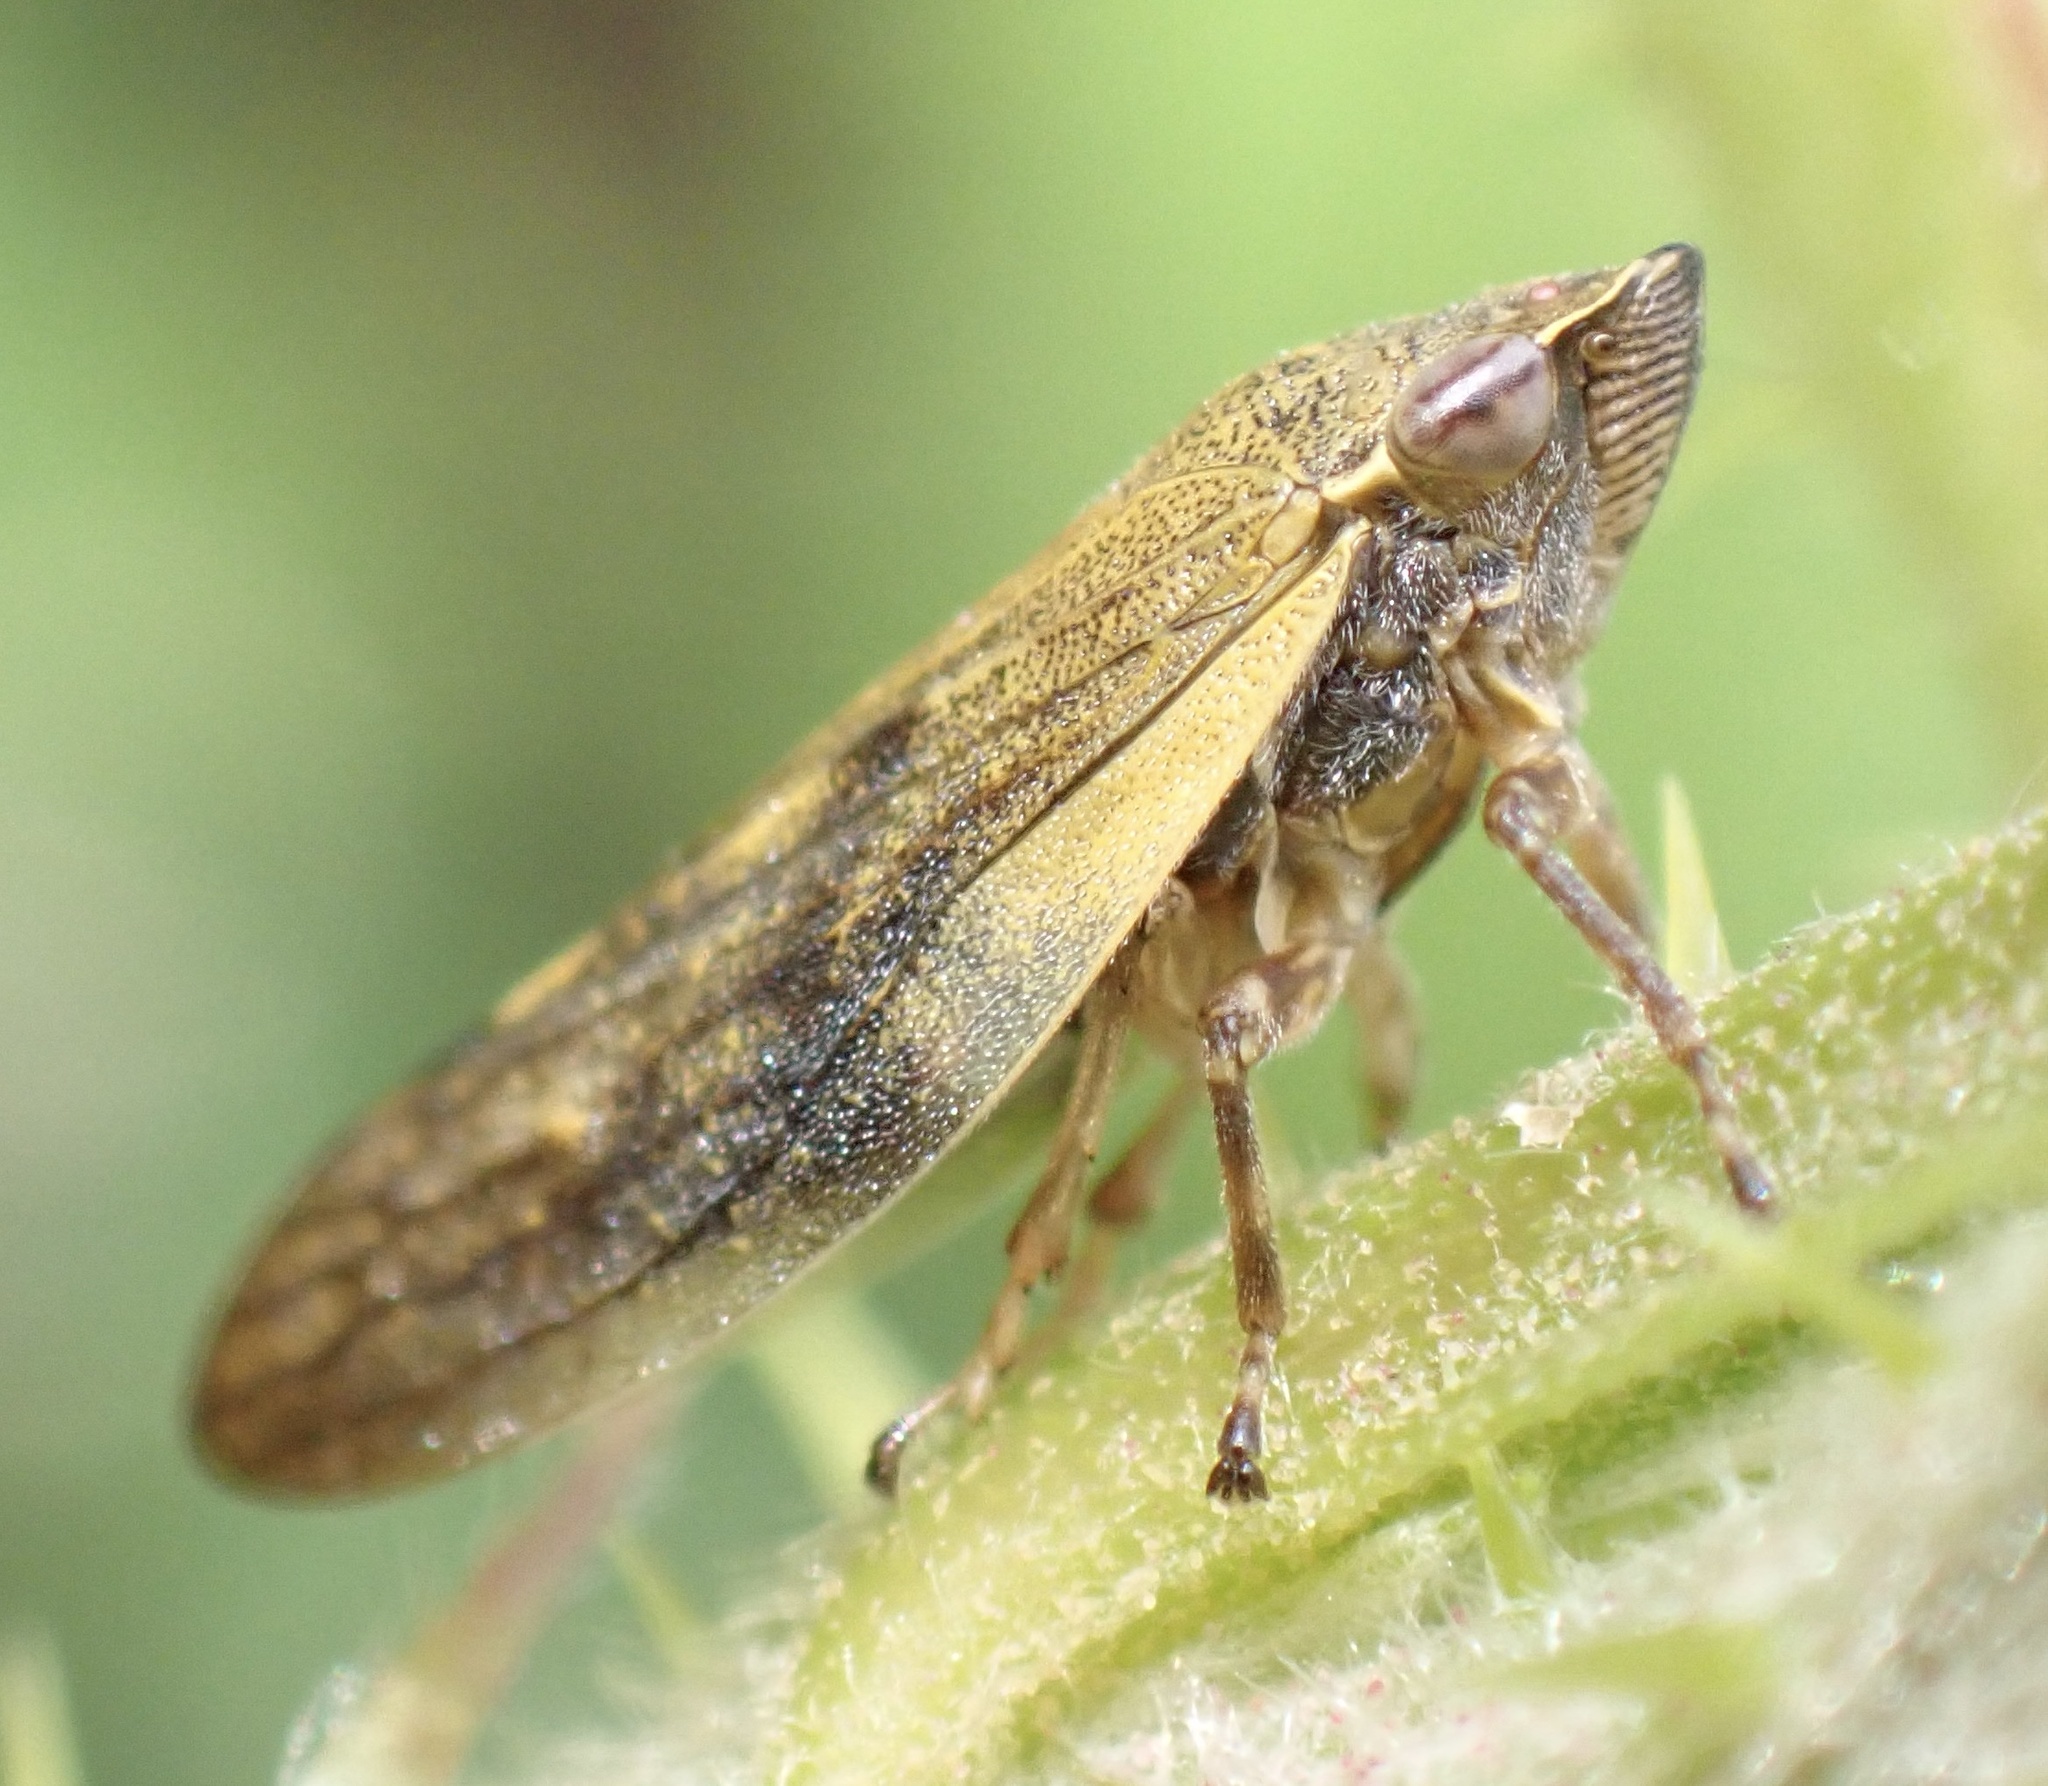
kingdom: Animalia
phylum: Arthropoda
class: Insecta
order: Hemiptera
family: Aphrophoridae
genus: Omalophora
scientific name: Omalophora pectoralis
